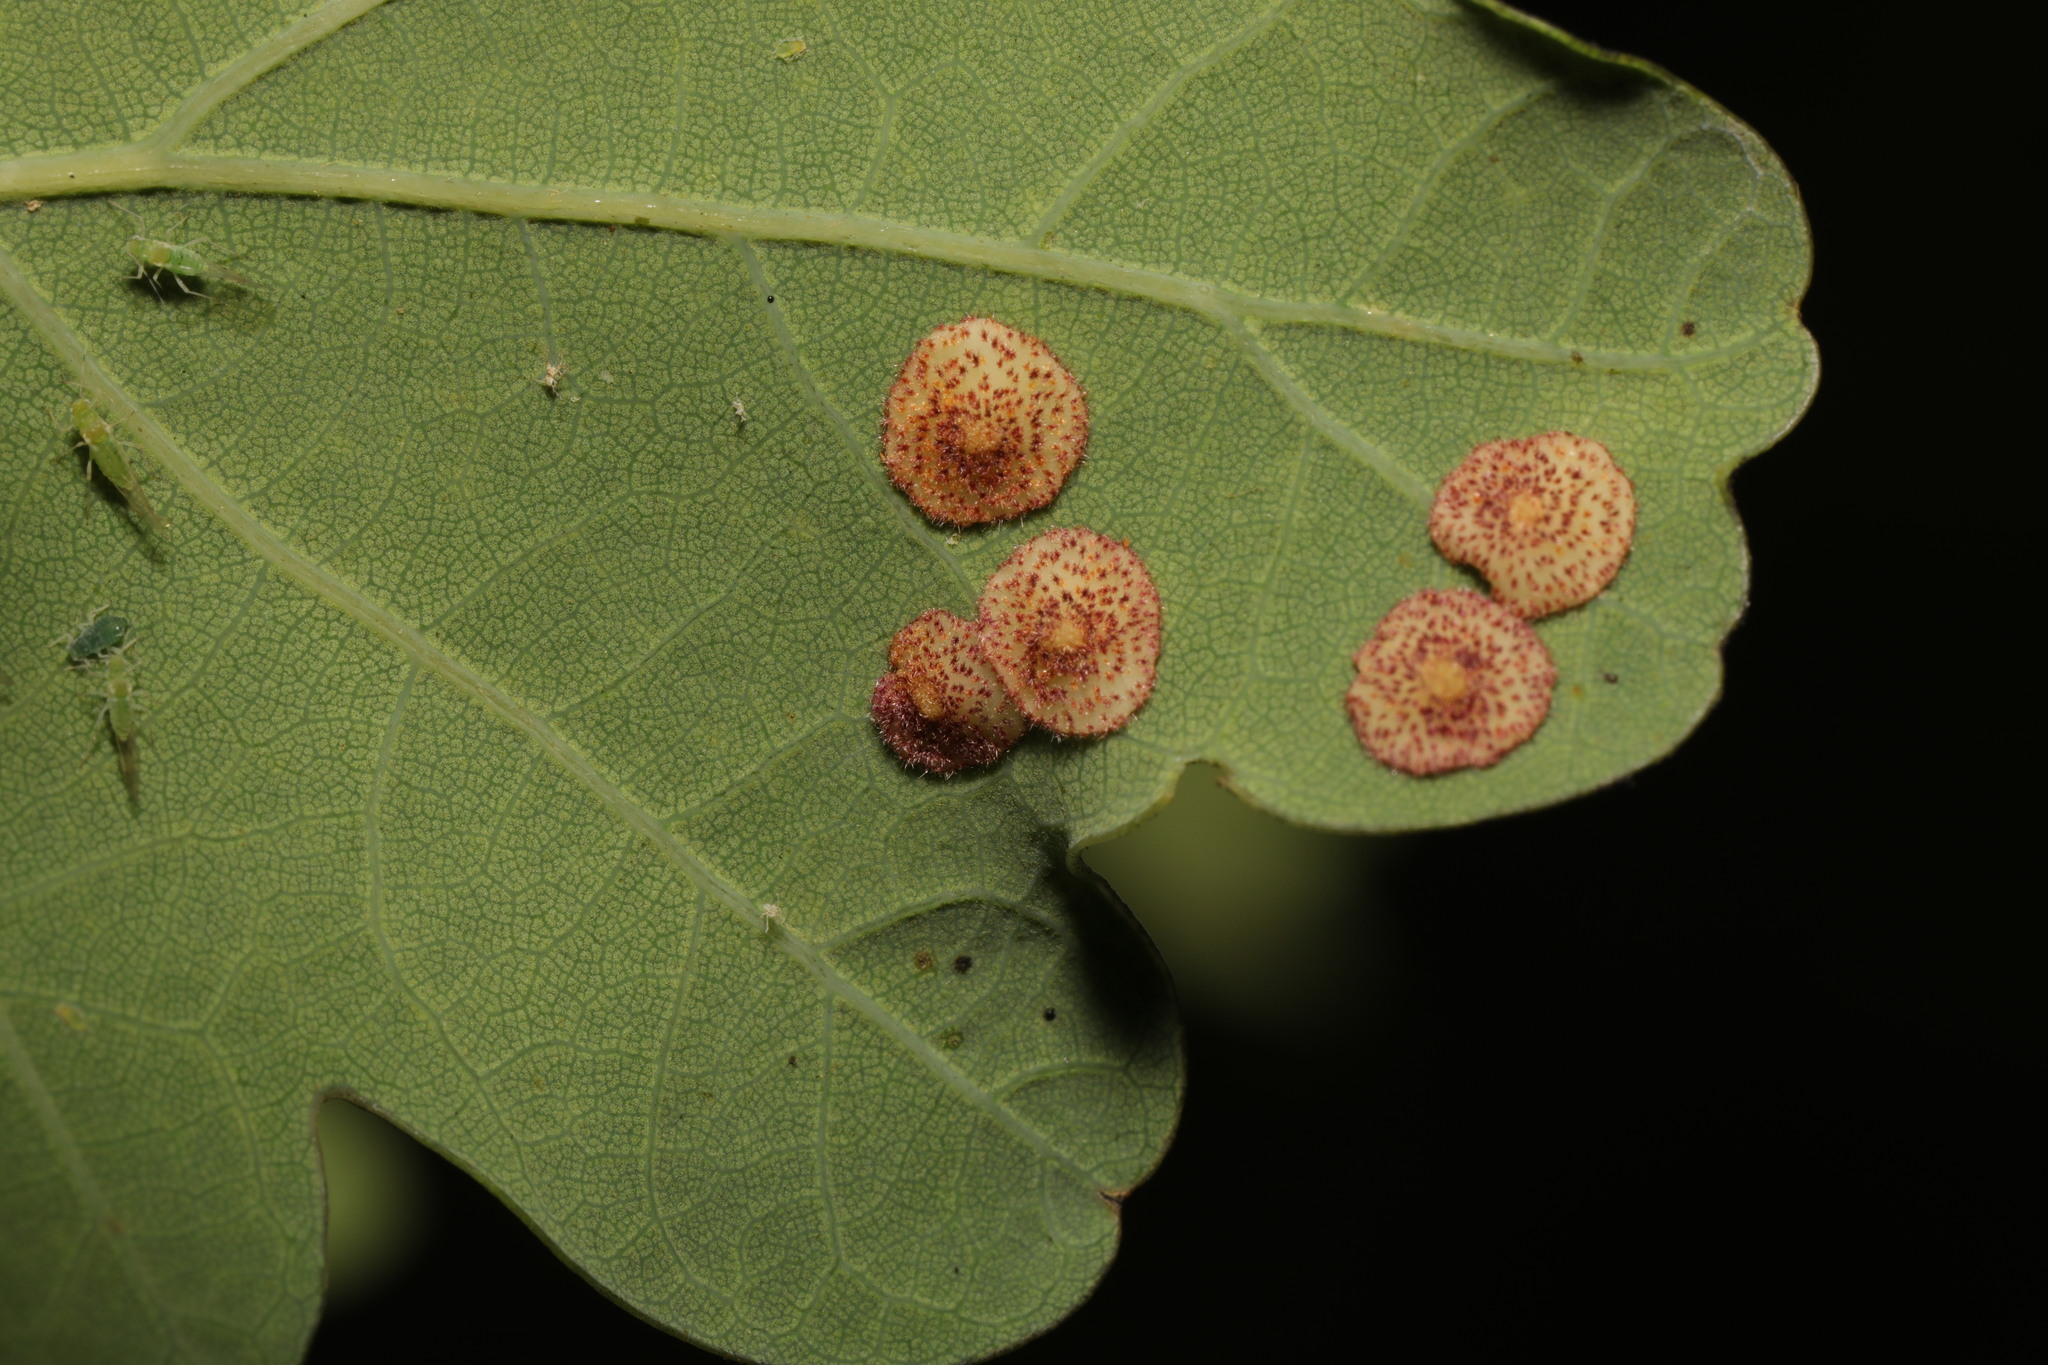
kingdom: Animalia
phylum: Arthropoda
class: Insecta
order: Hymenoptera
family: Cynipidae
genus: Neuroterus
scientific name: Neuroterus quercusbaccarum
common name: Common spangle gall
